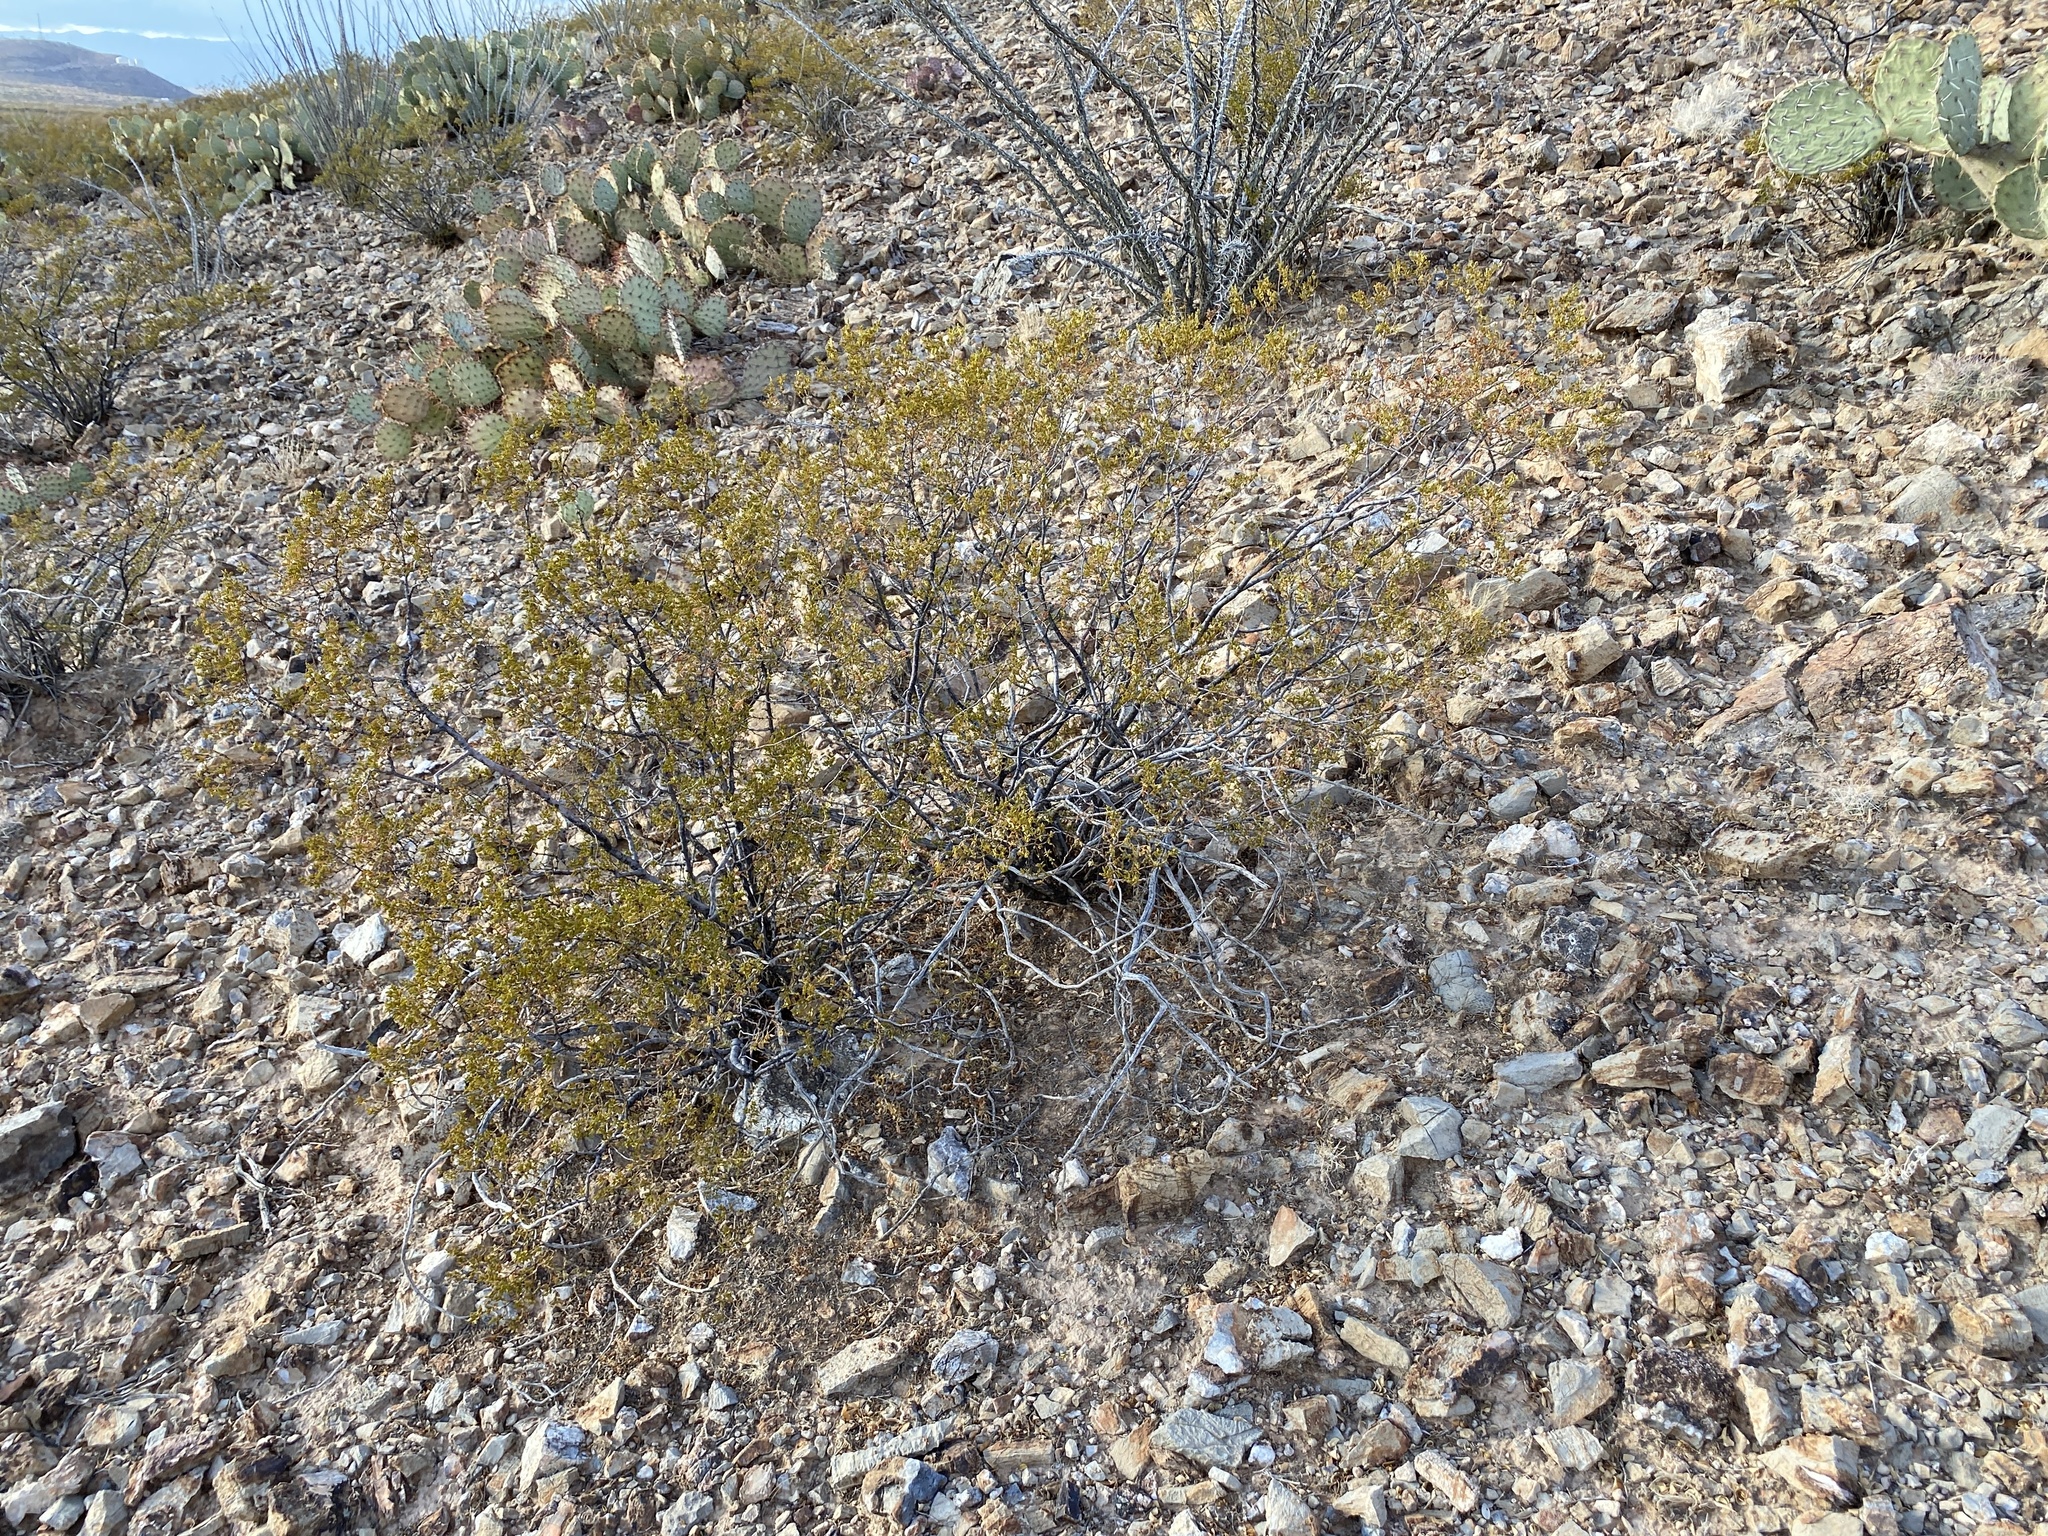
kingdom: Plantae
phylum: Tracheophyta
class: Magnoliopsida
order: Zygophyllales
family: Zygophyllaceae
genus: Larrea
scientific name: Larrea tridentata
